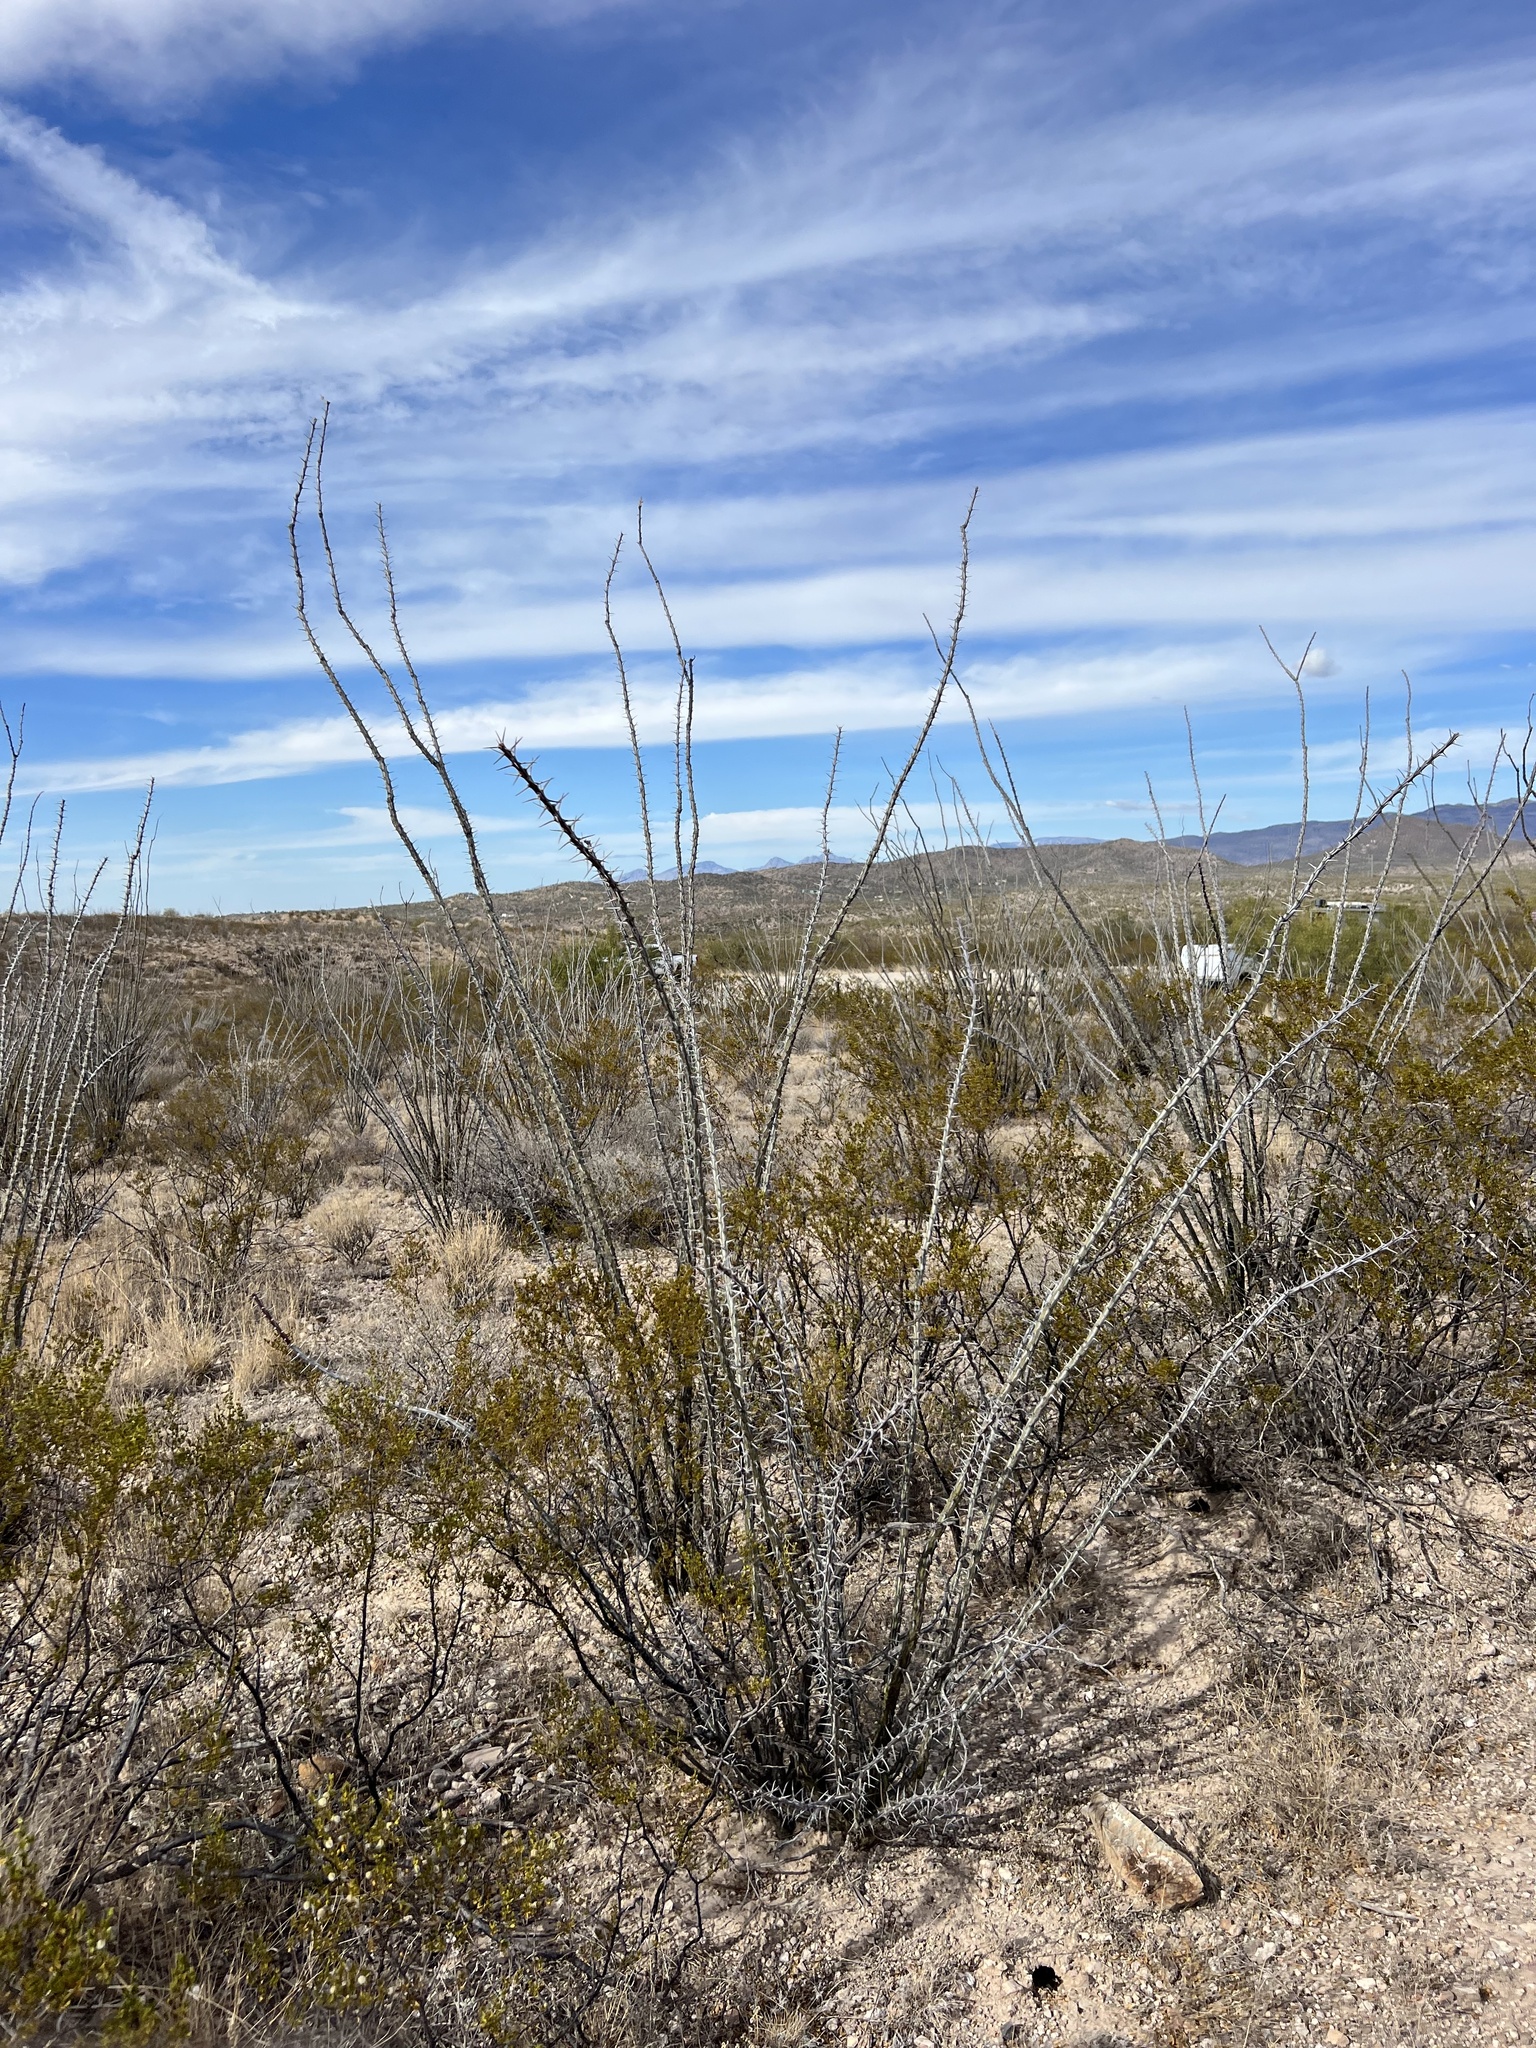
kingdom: Plantae
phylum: Tracheophyta
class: Magnoliopsida
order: Ericales
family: Fouquieriaceae
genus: Fouquieria
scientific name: Fouquieria splendens
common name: Vine-cactus
